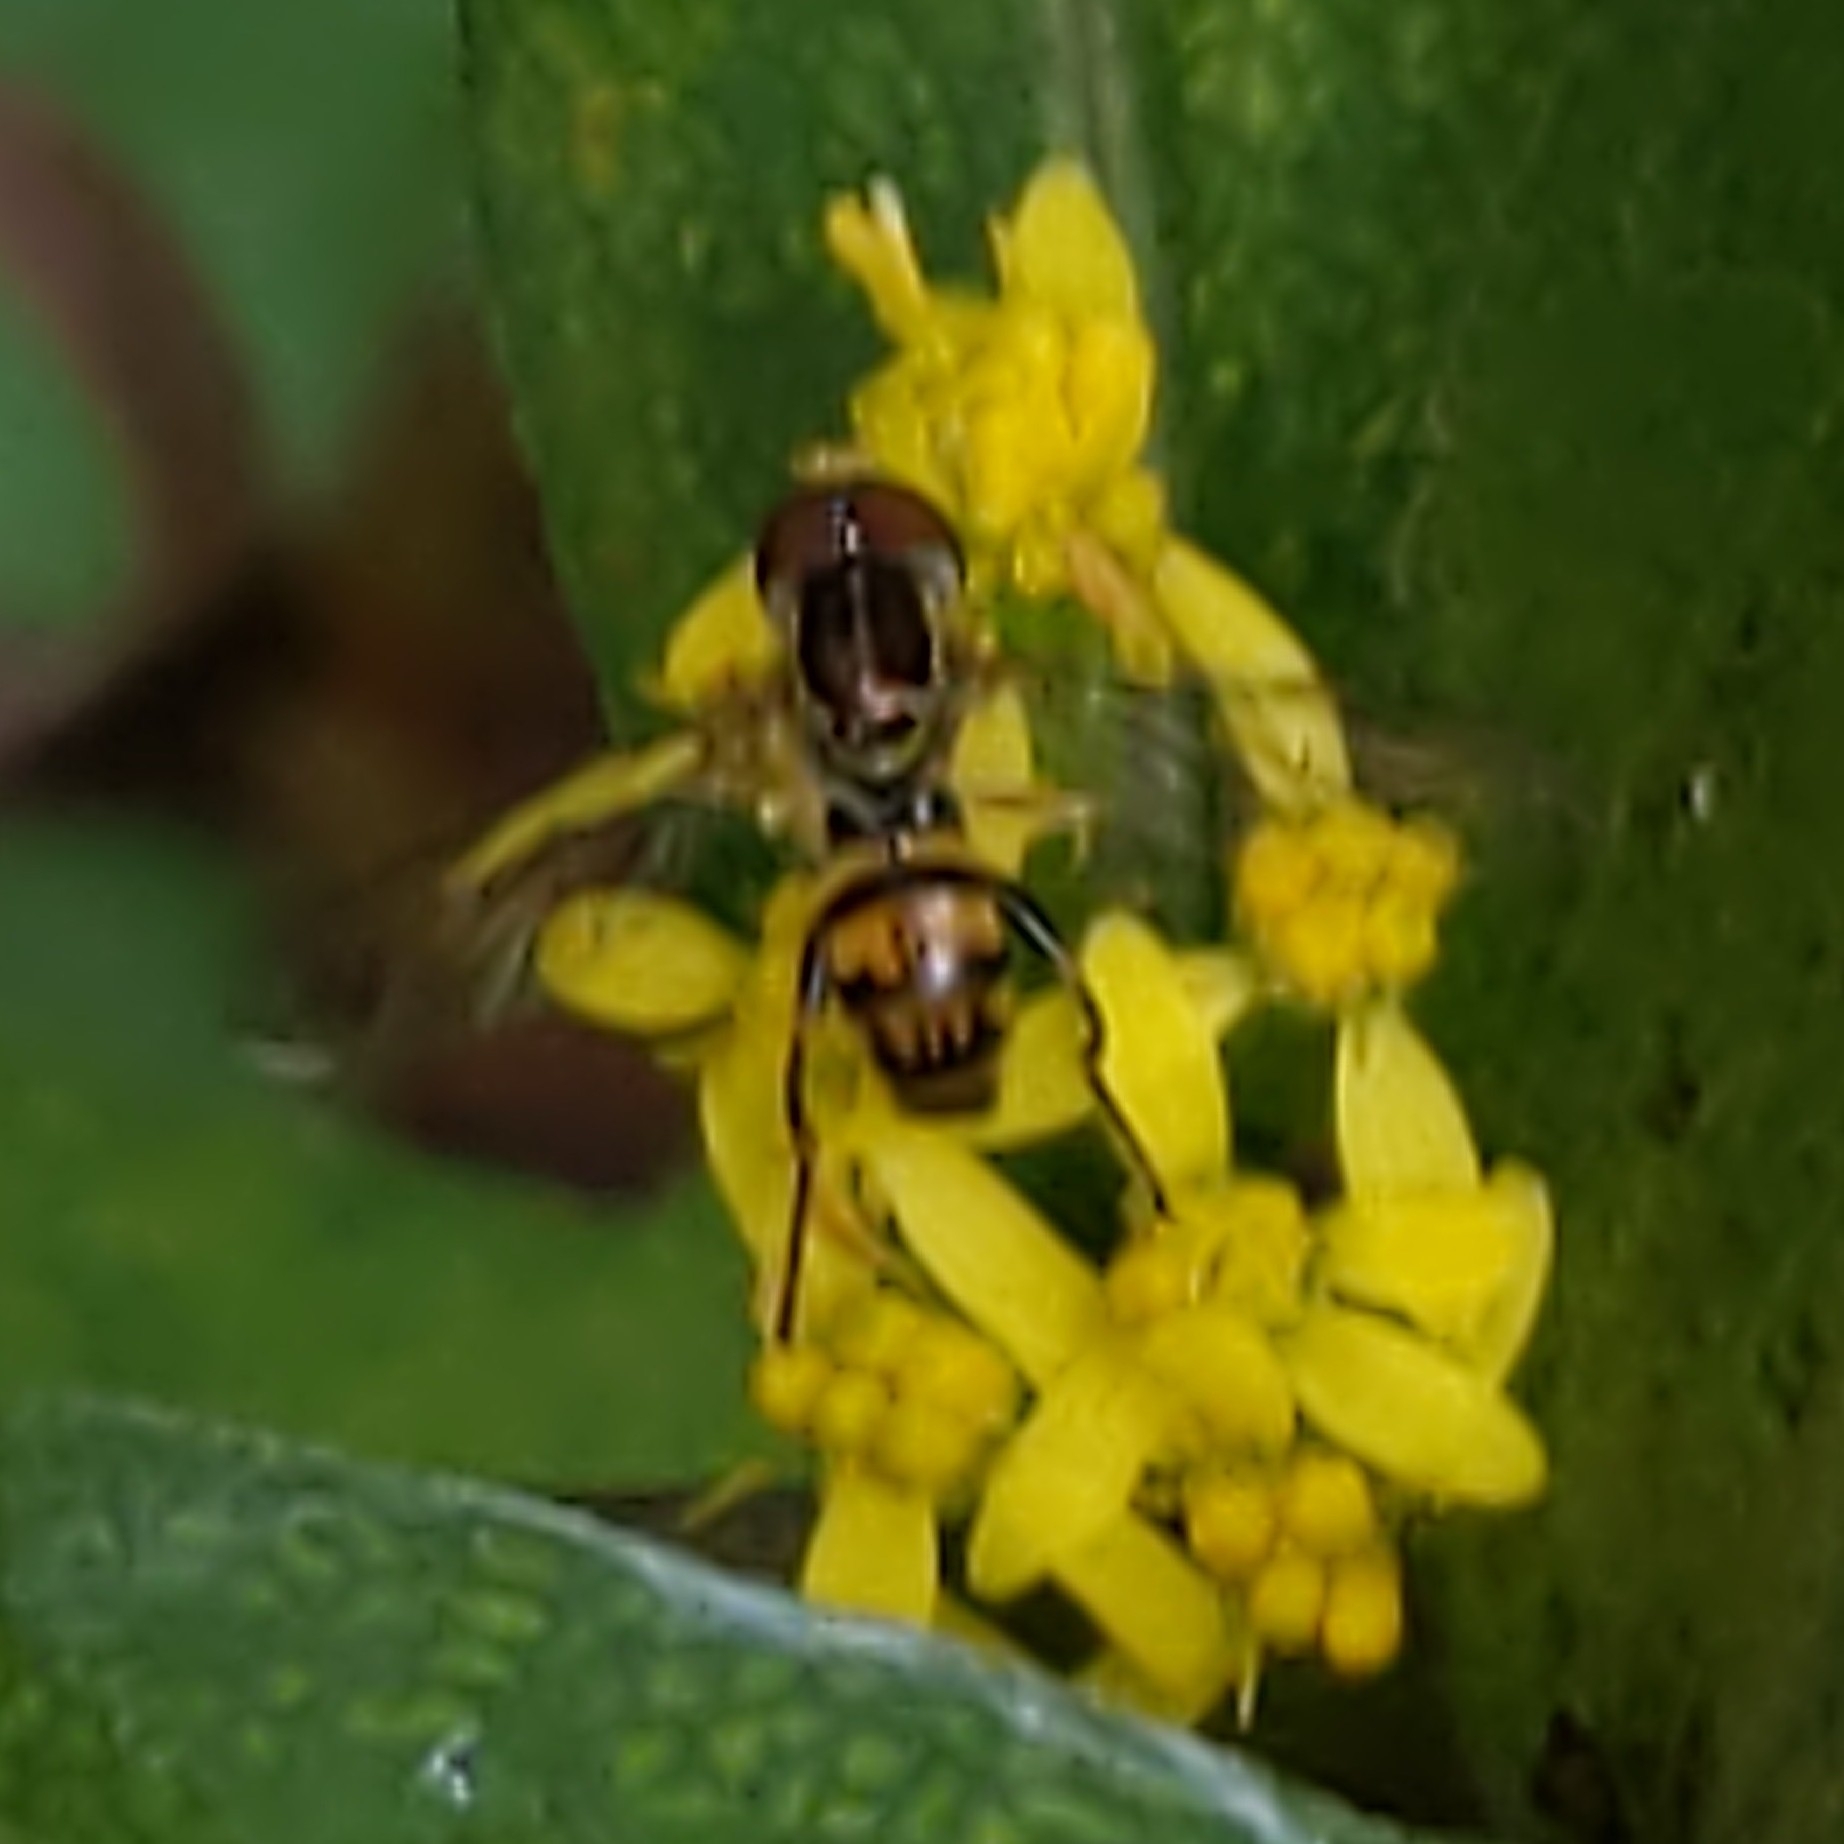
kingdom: Animalia
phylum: Arthropoda
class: Insecta
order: Diptera
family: Syrphidae
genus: Toxomerus
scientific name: Toxomerus geminatus
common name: Eastern calligrapher
